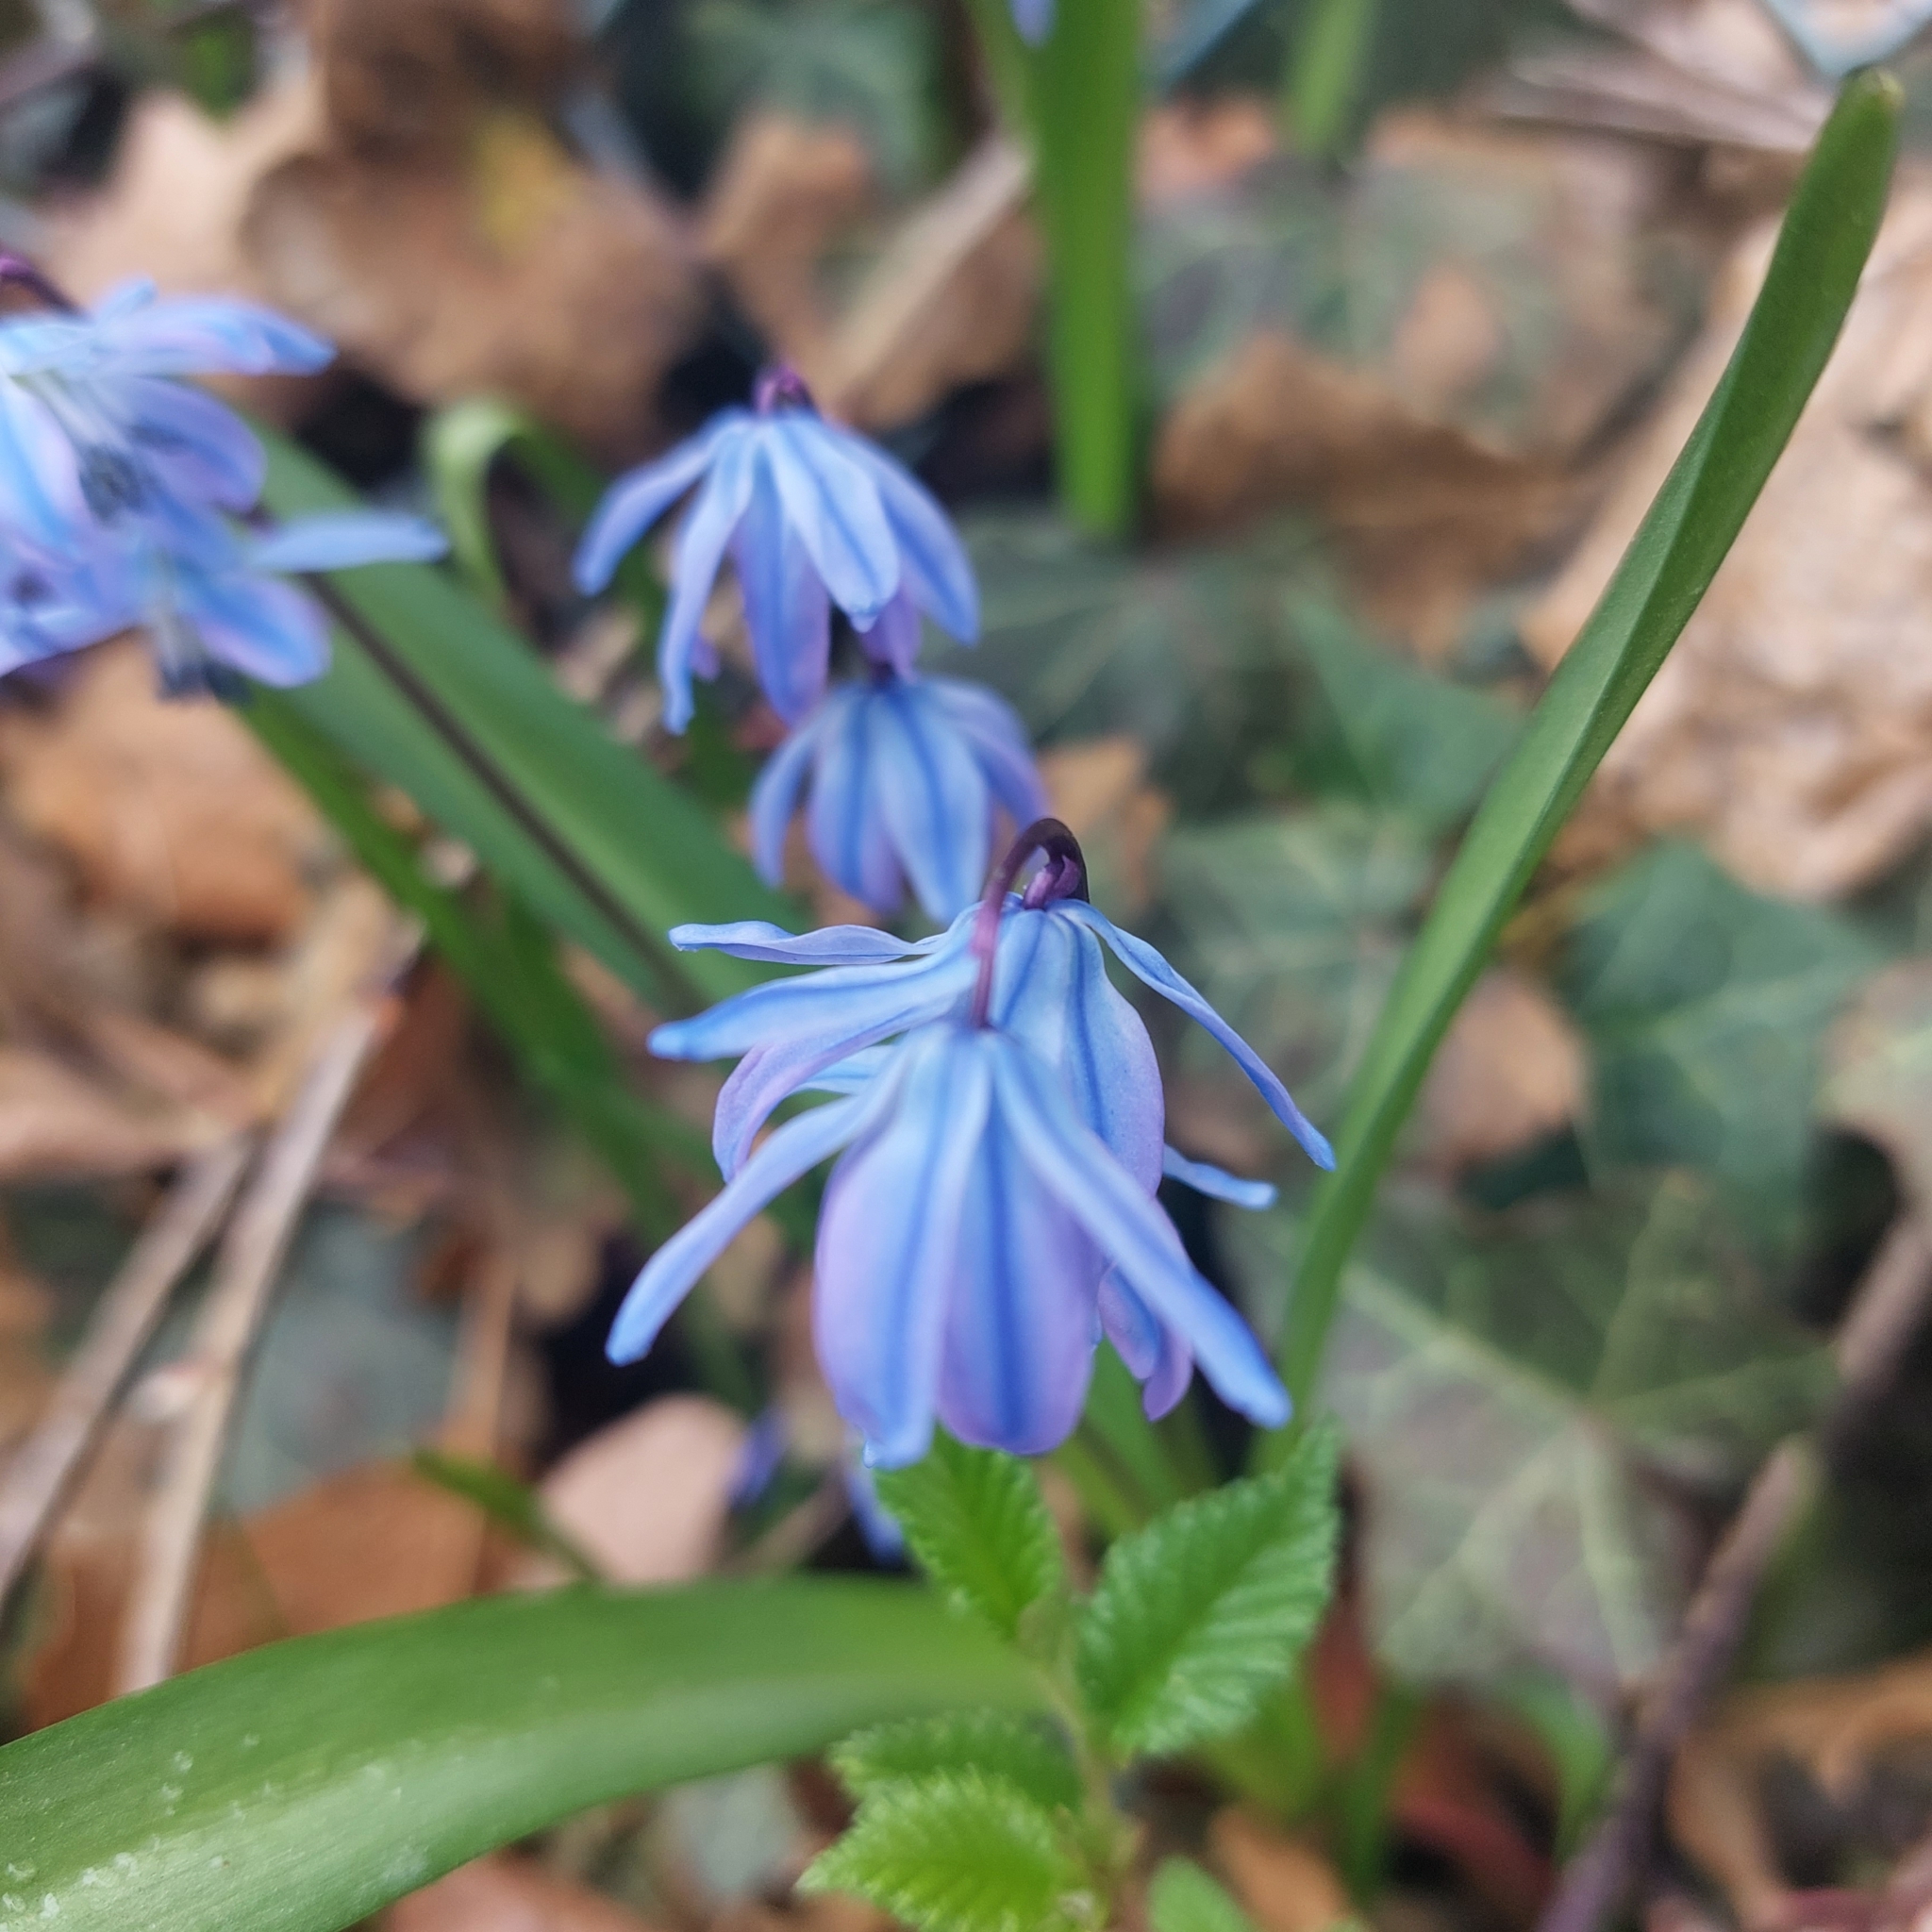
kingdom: Plantae
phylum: Tracheophyta
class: Liliopsida
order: Asparagales
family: Asparagaceae
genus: Scilla
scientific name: Scilla siberica
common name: Siberian squill
